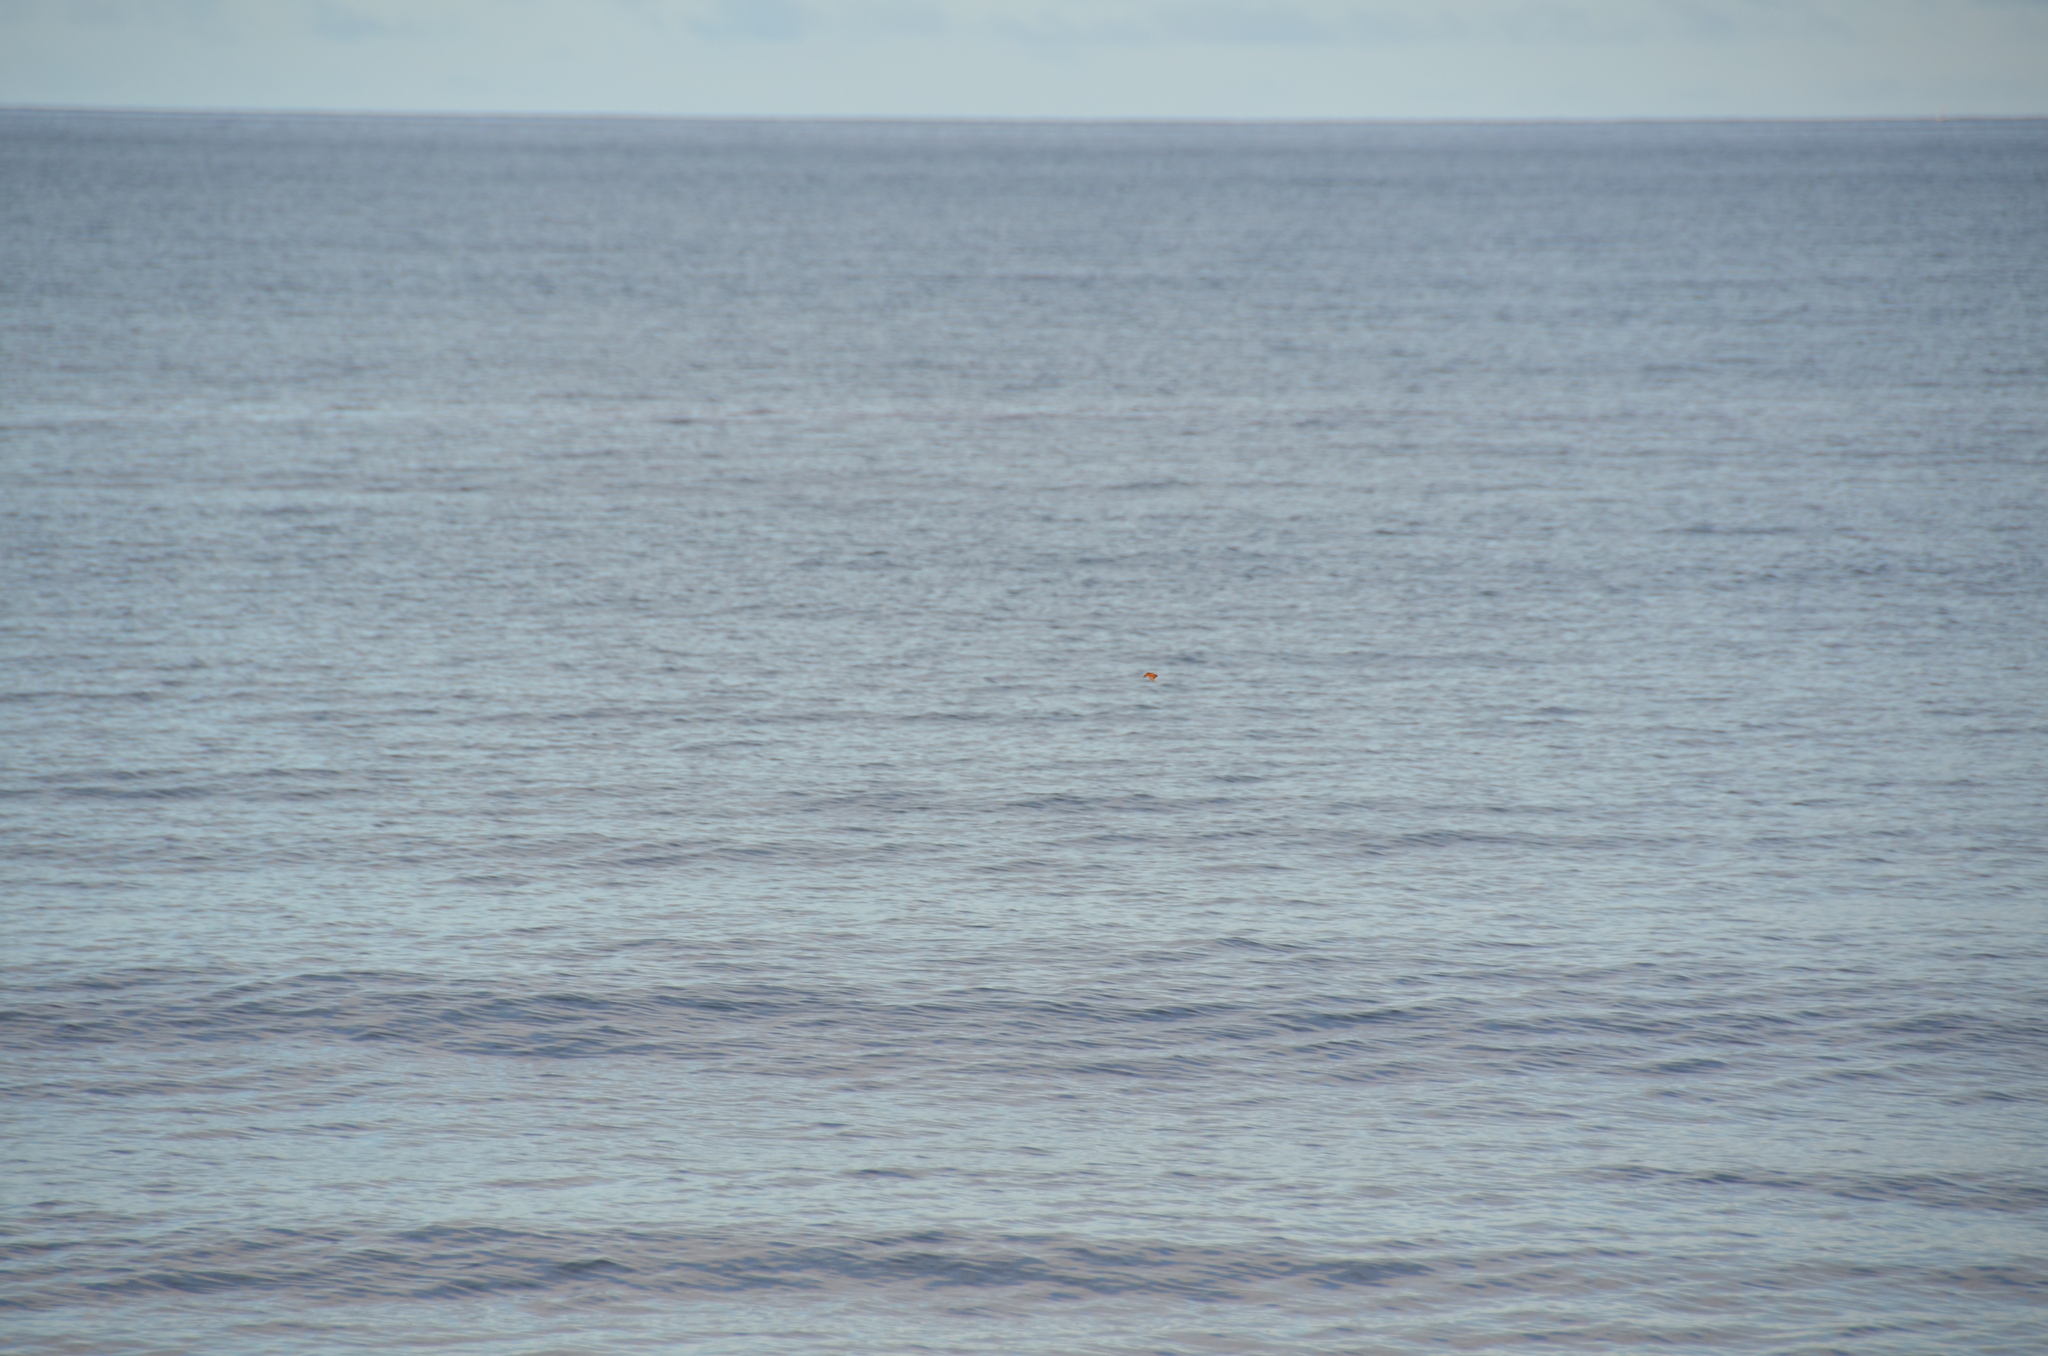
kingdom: Animalia
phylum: Arthropoda
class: Insecta
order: Lepidoptera
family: Nymphalidae
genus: Danaus
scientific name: Danaus plexippus
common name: Monarch
